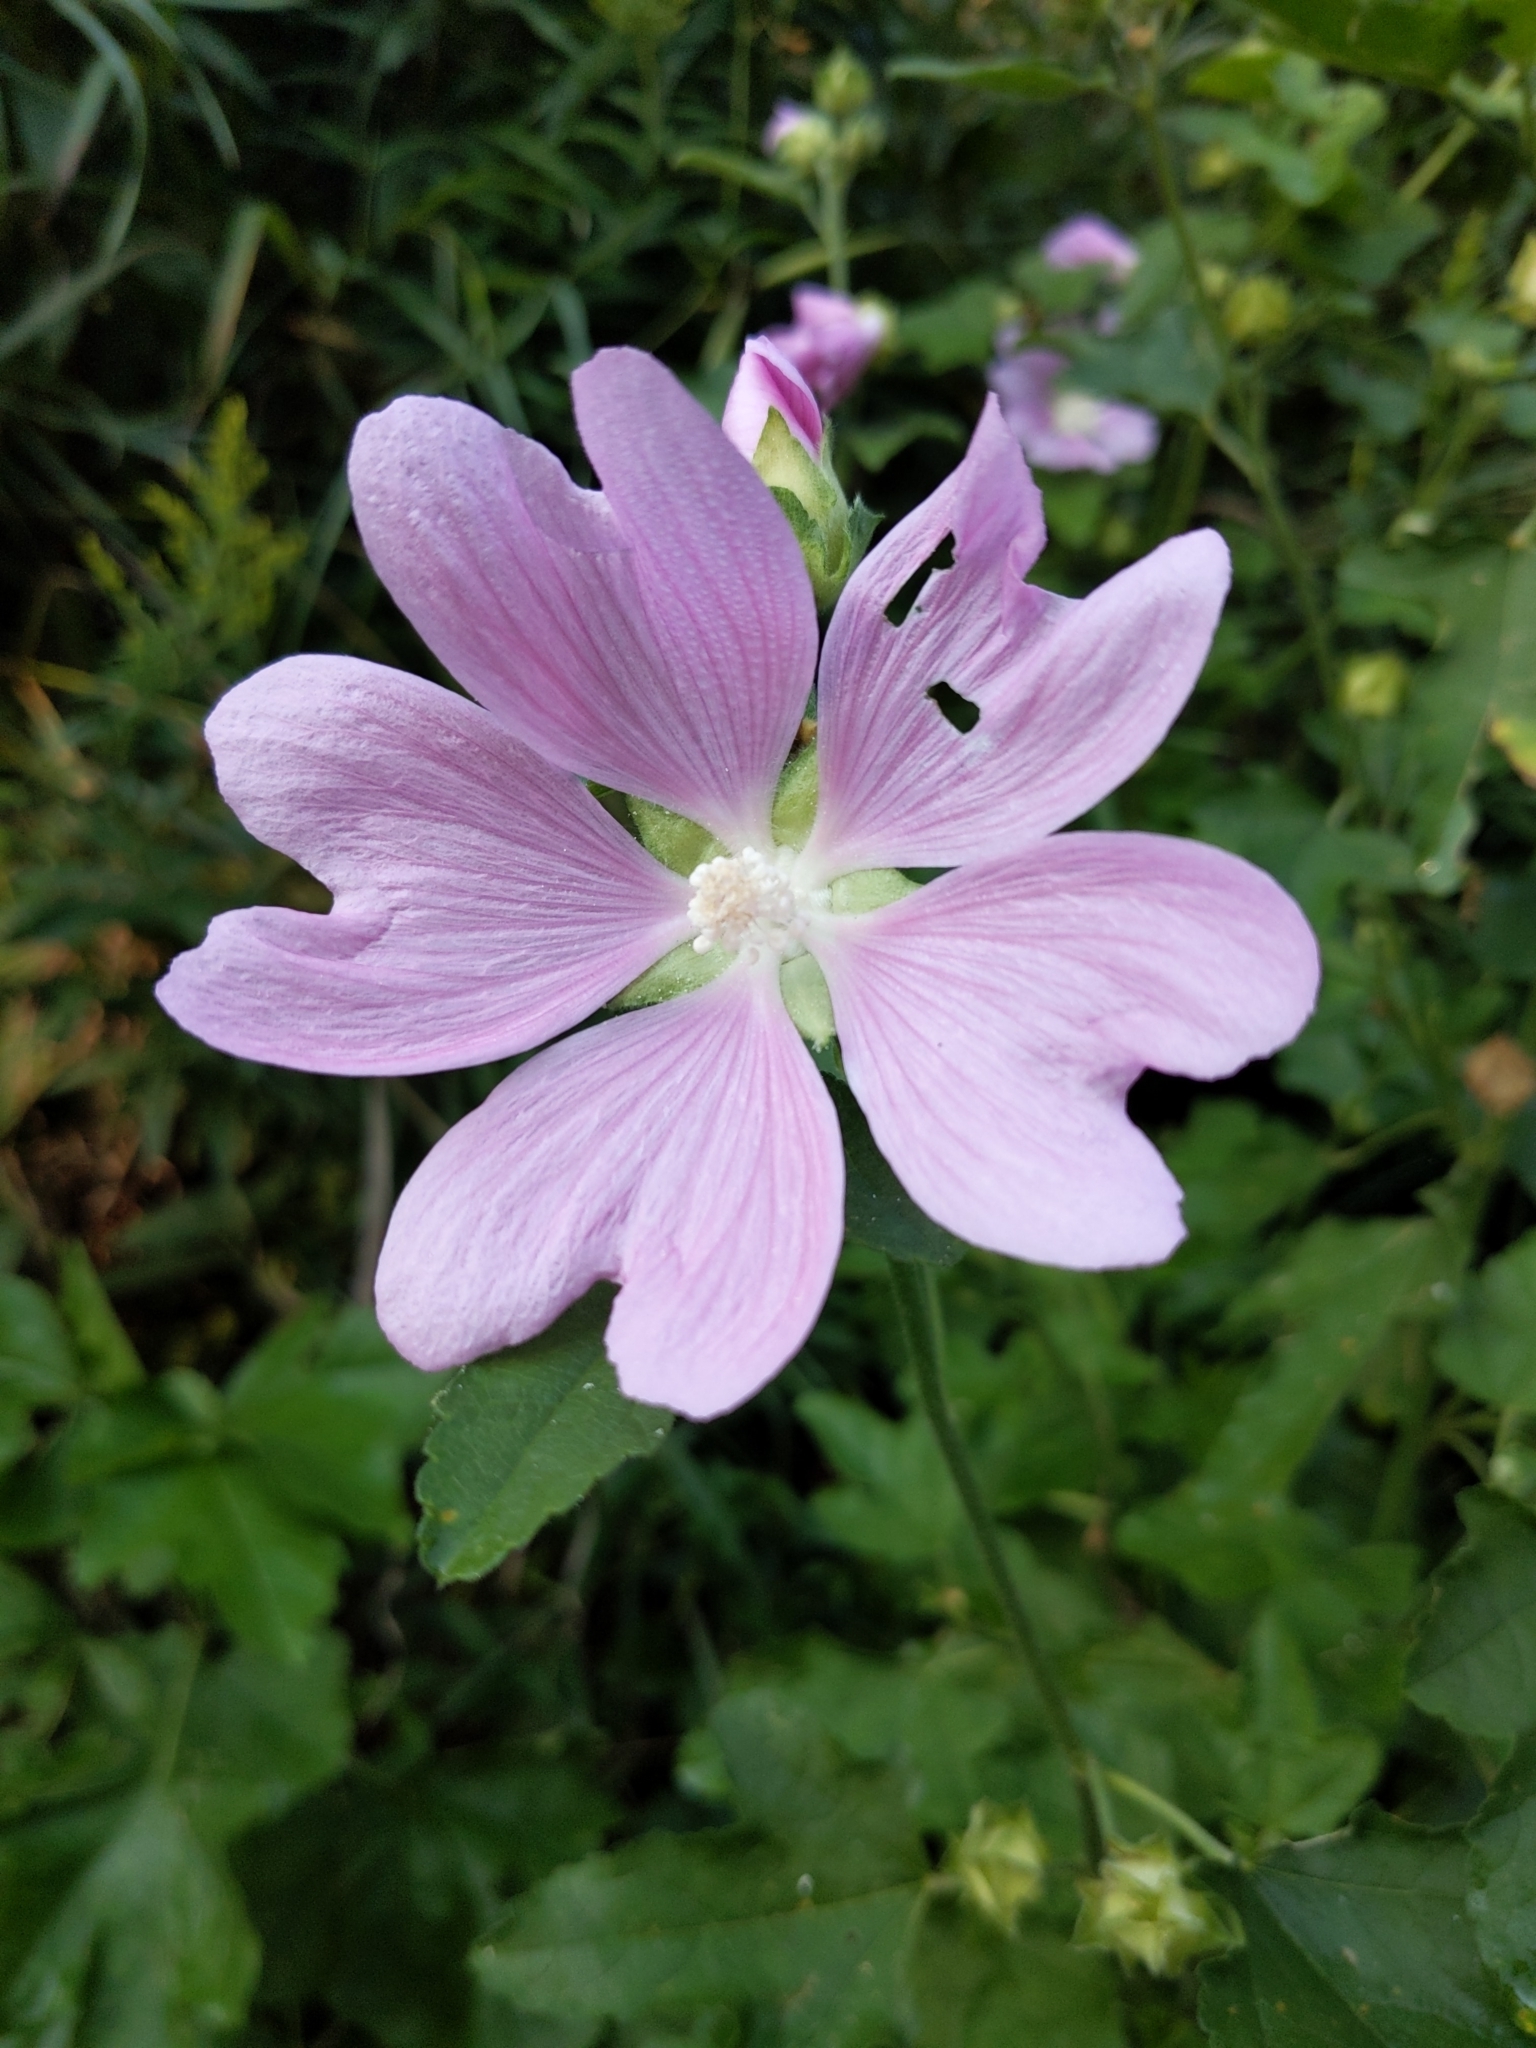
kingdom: Plantae
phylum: Tracheophyta
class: Magnoliopsida
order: Malvales
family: Malvaceae
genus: Malva
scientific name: Malva thuringiaca
